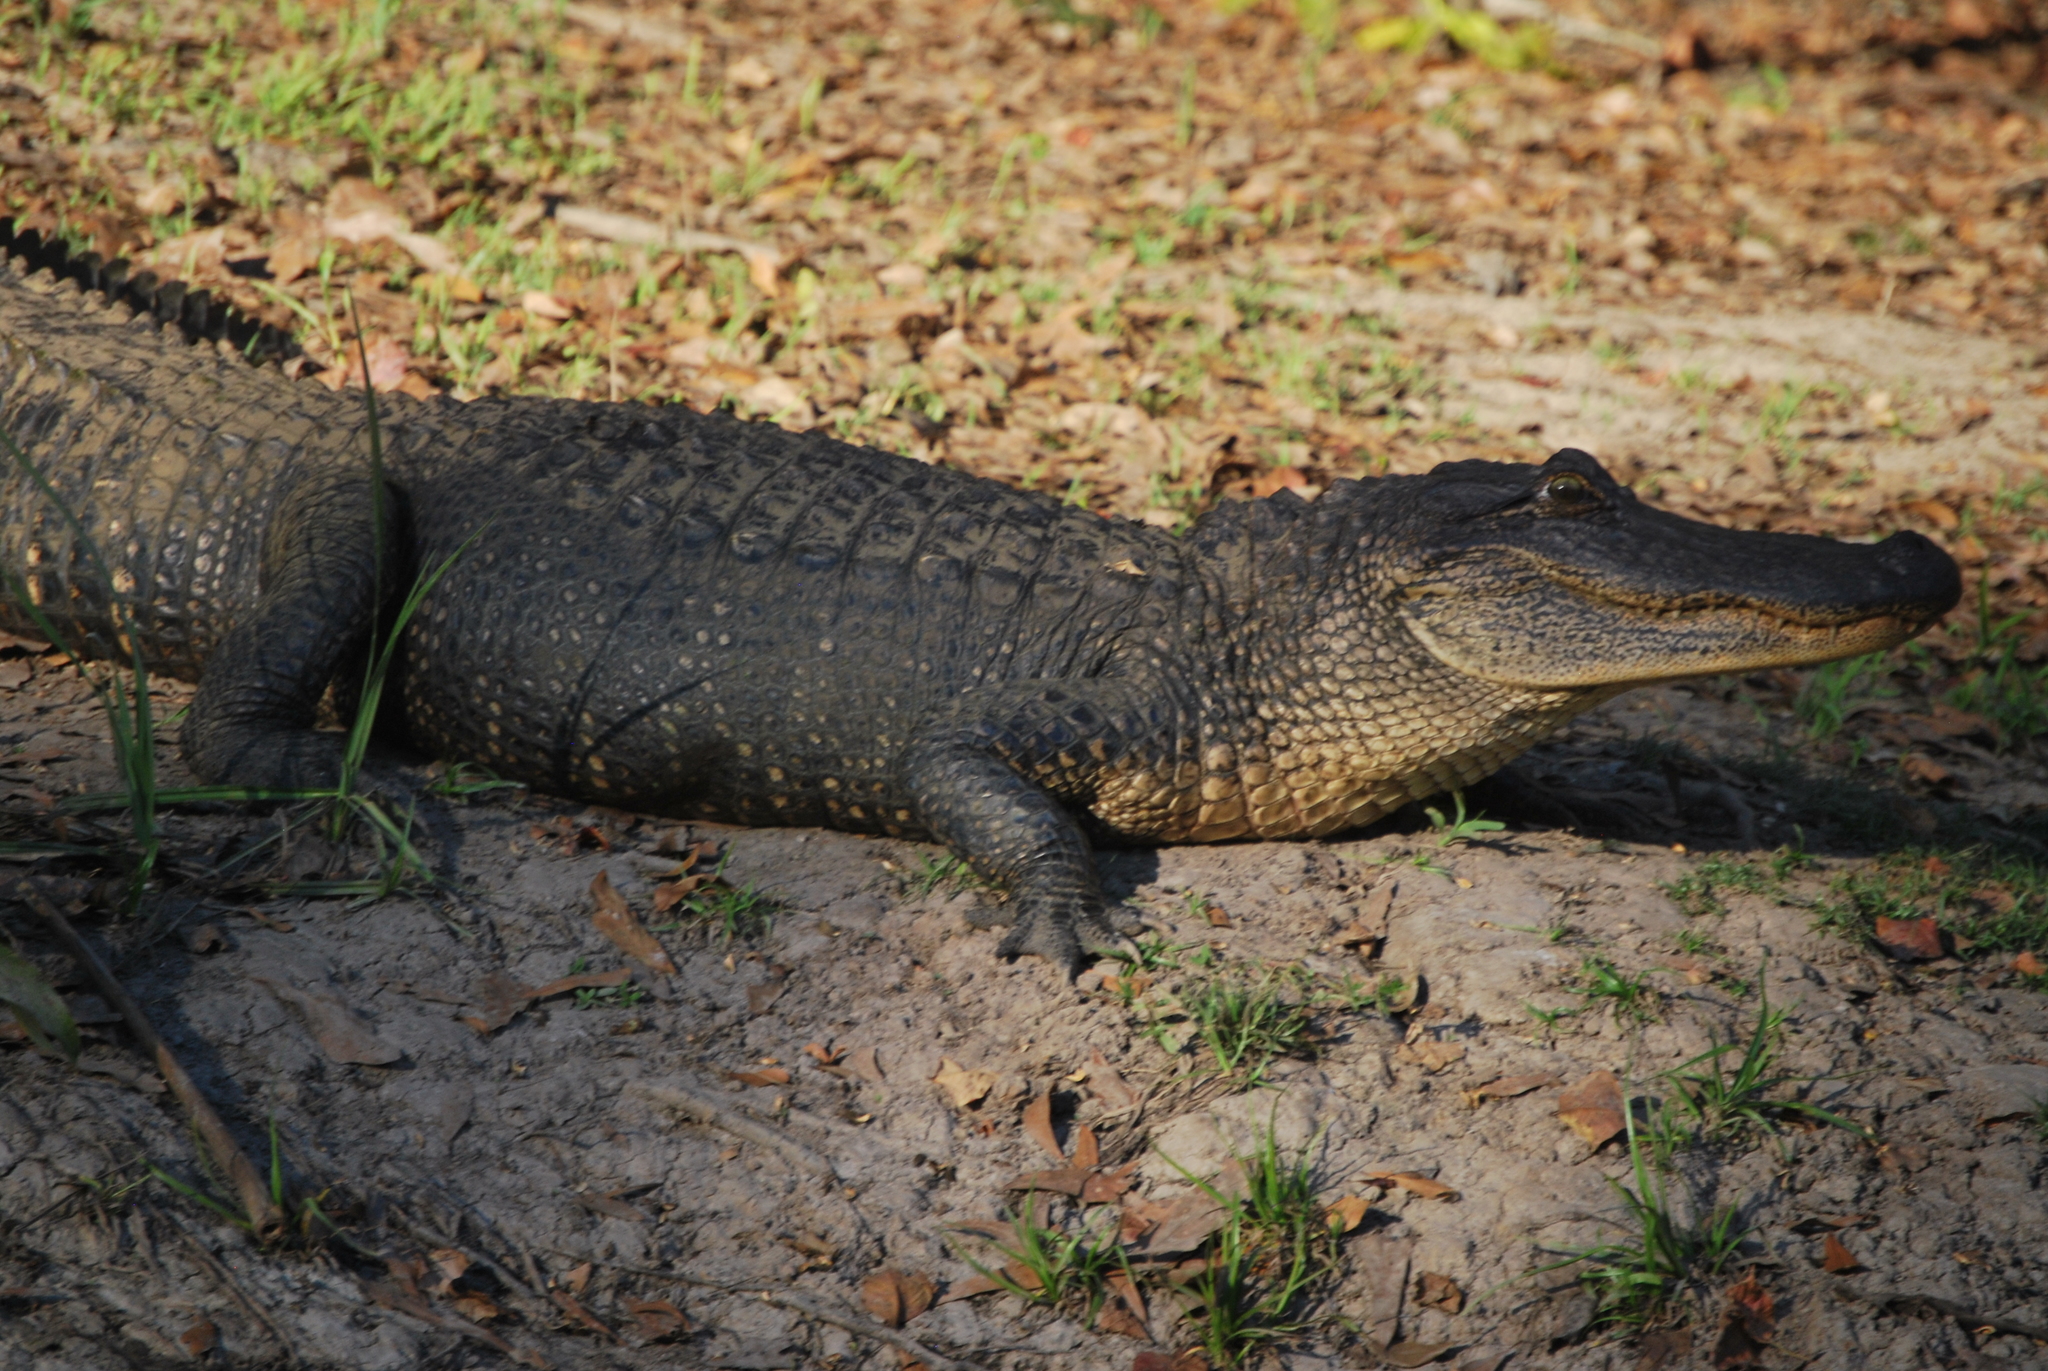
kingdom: Animalia
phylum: Chordata
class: Crocodylia
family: Alligatoridae
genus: Alligator
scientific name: Alligator mississippiensis
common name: American alligator
